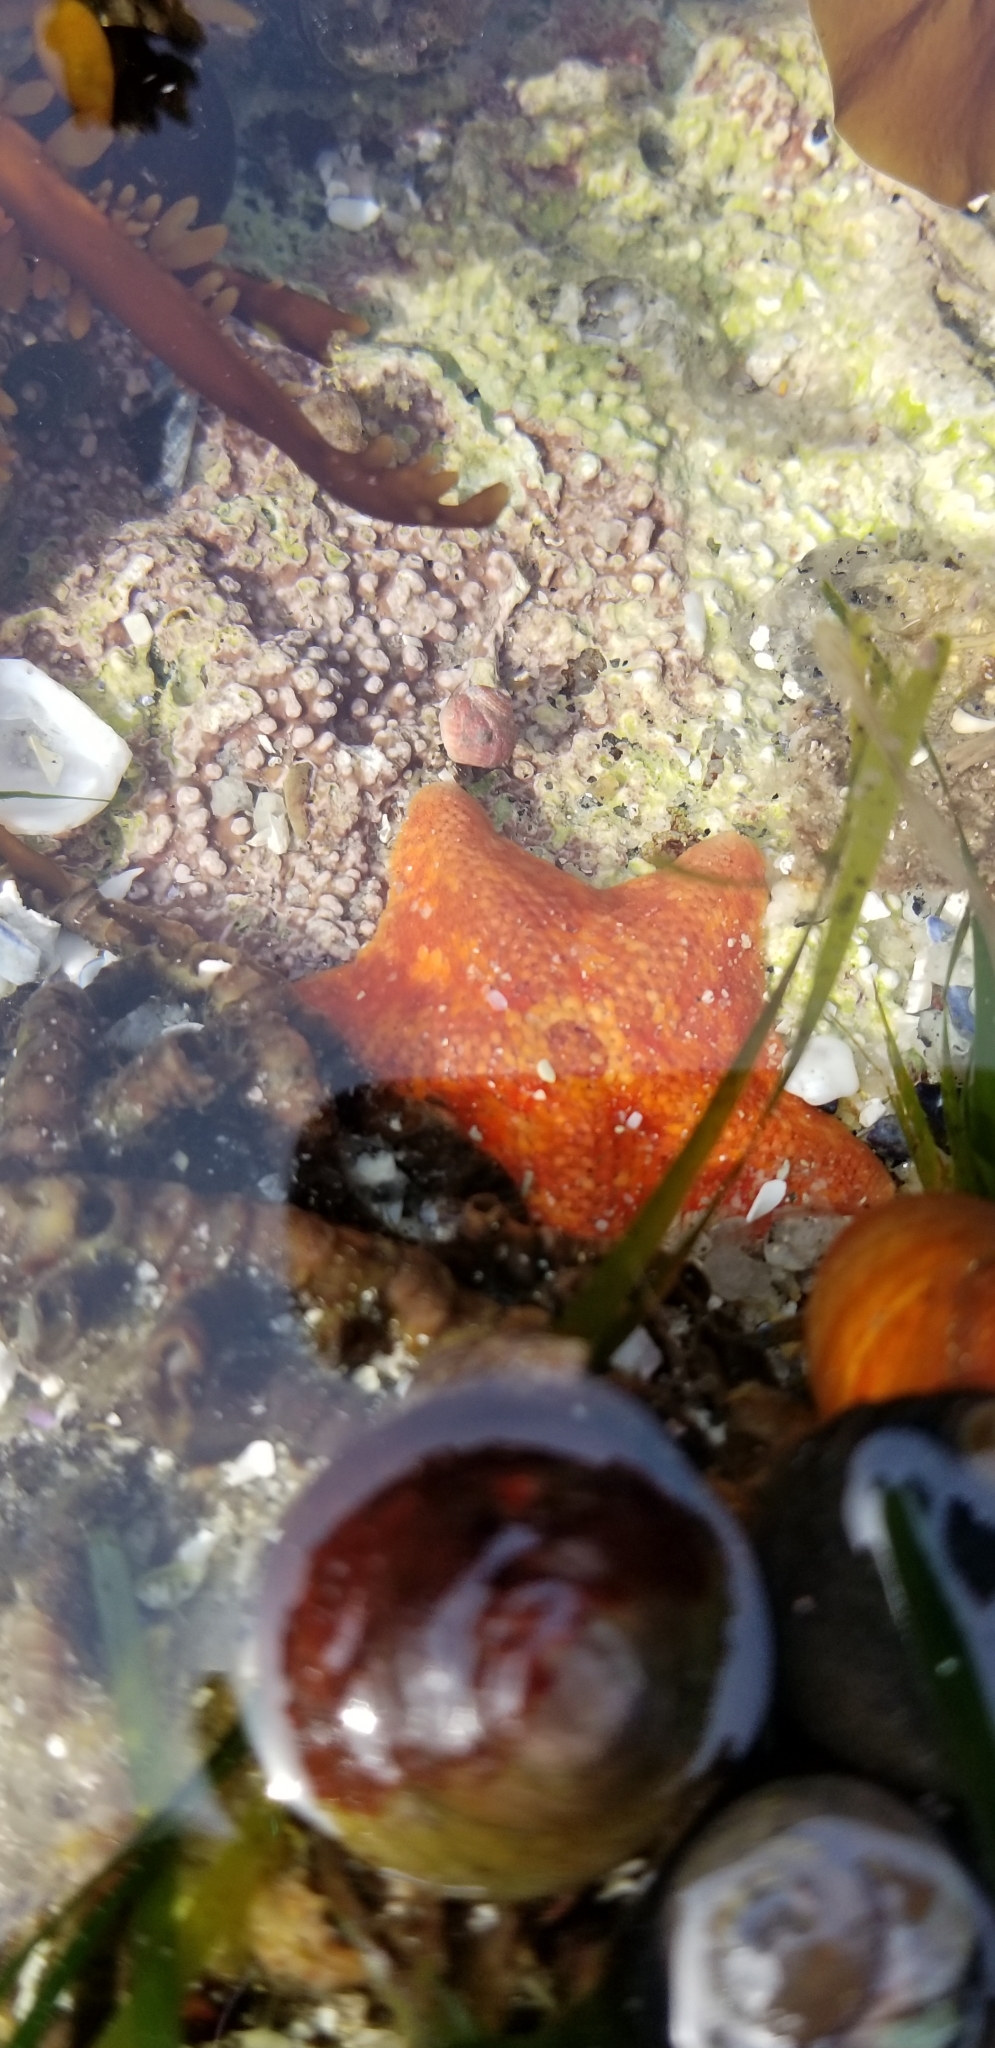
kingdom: Animalia
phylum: Echinodermata
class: Asteroidea
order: Valvatida
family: Asterinidae
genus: Patiria
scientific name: Patiria miniata
